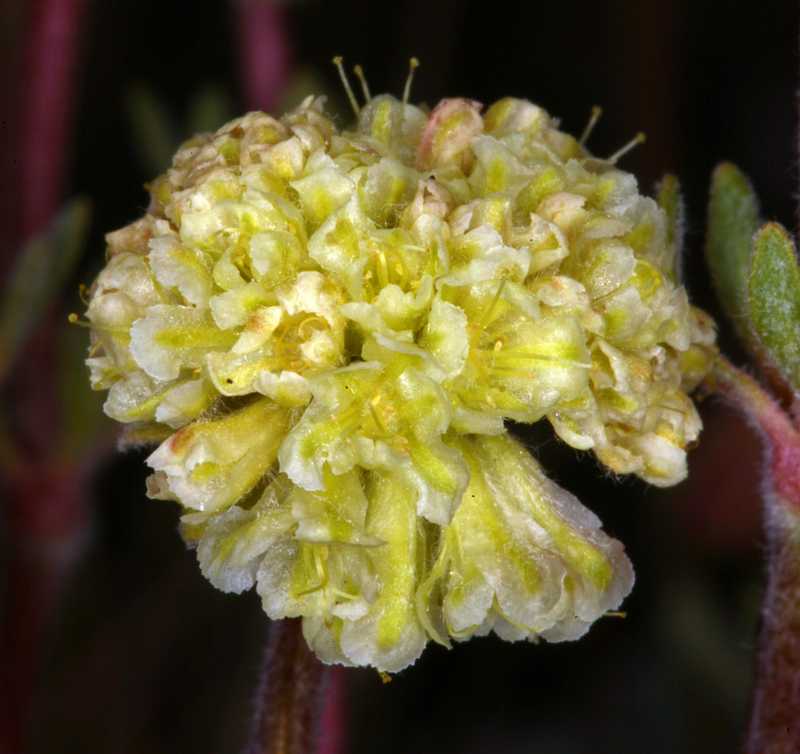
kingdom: Plantae
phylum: Tracheophyta
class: Magnoliopsida
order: Caryophyllales
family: Polygonaceae
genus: Eriogonum
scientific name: Eriogonum douglasii
